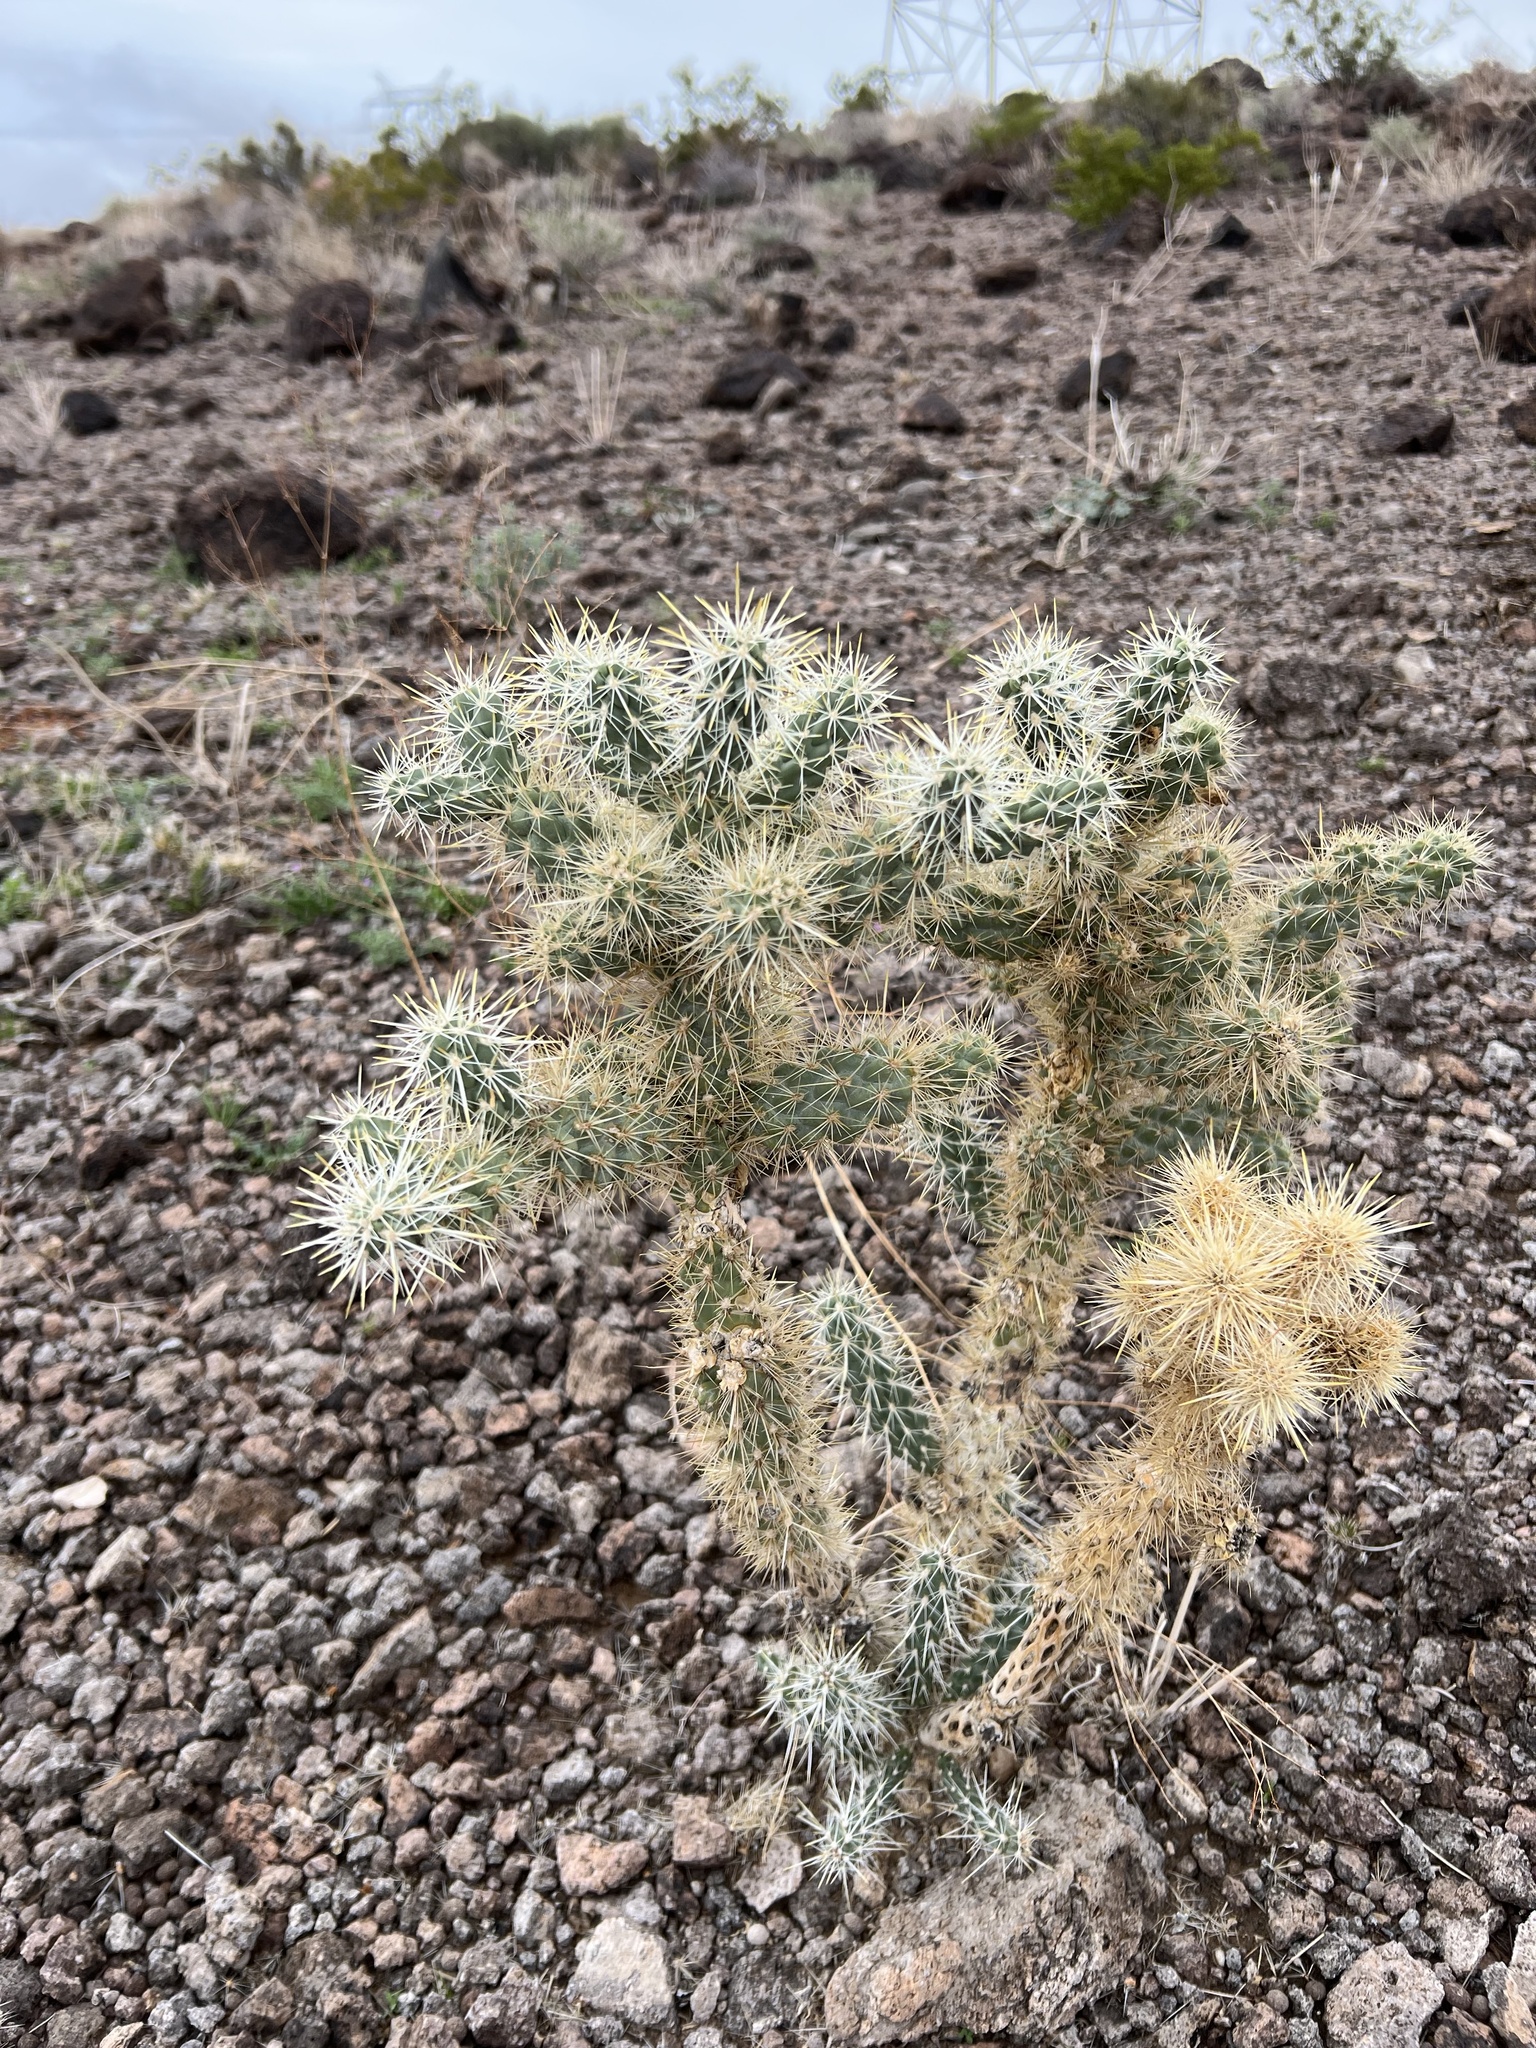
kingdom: Plantae
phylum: Tracheophyta
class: Magnoliopsida
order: Caryophyllales
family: Cactaceae
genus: Cylindropuntia
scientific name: Cylindropuntia echinocarpa
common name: Ground cholla
